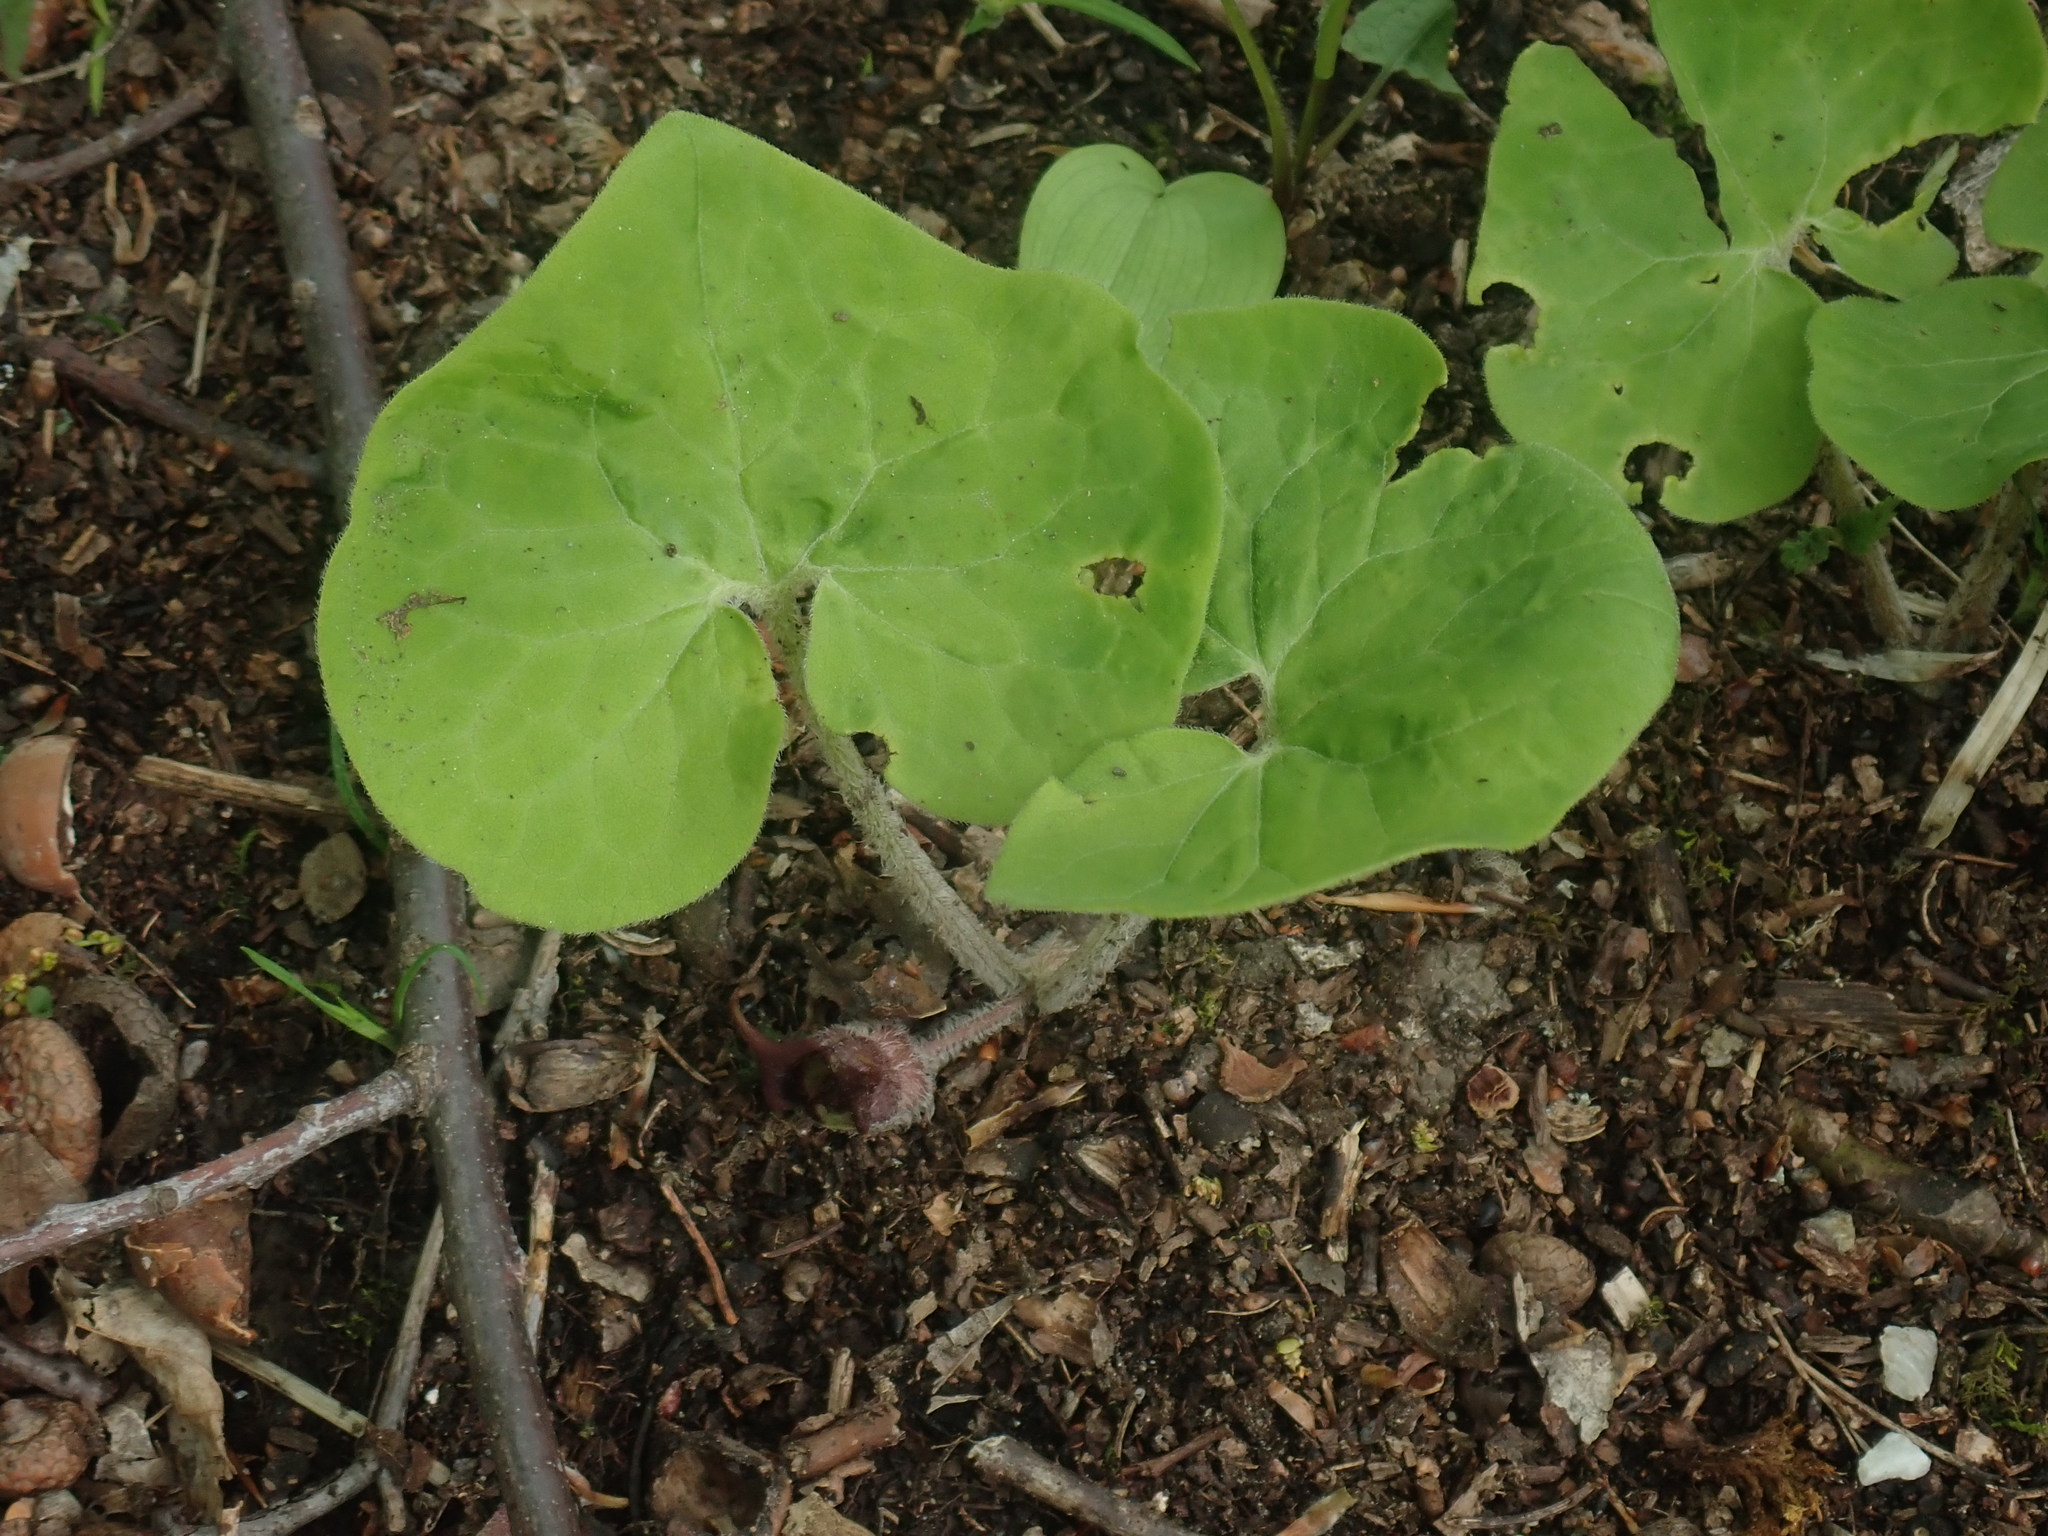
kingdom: Plantae
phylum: Tracheophyta
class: Magnoliopsida
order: Piperales
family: Aristolochiaceae
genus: Asarum
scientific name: Asarum canadense
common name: Wild ginger
